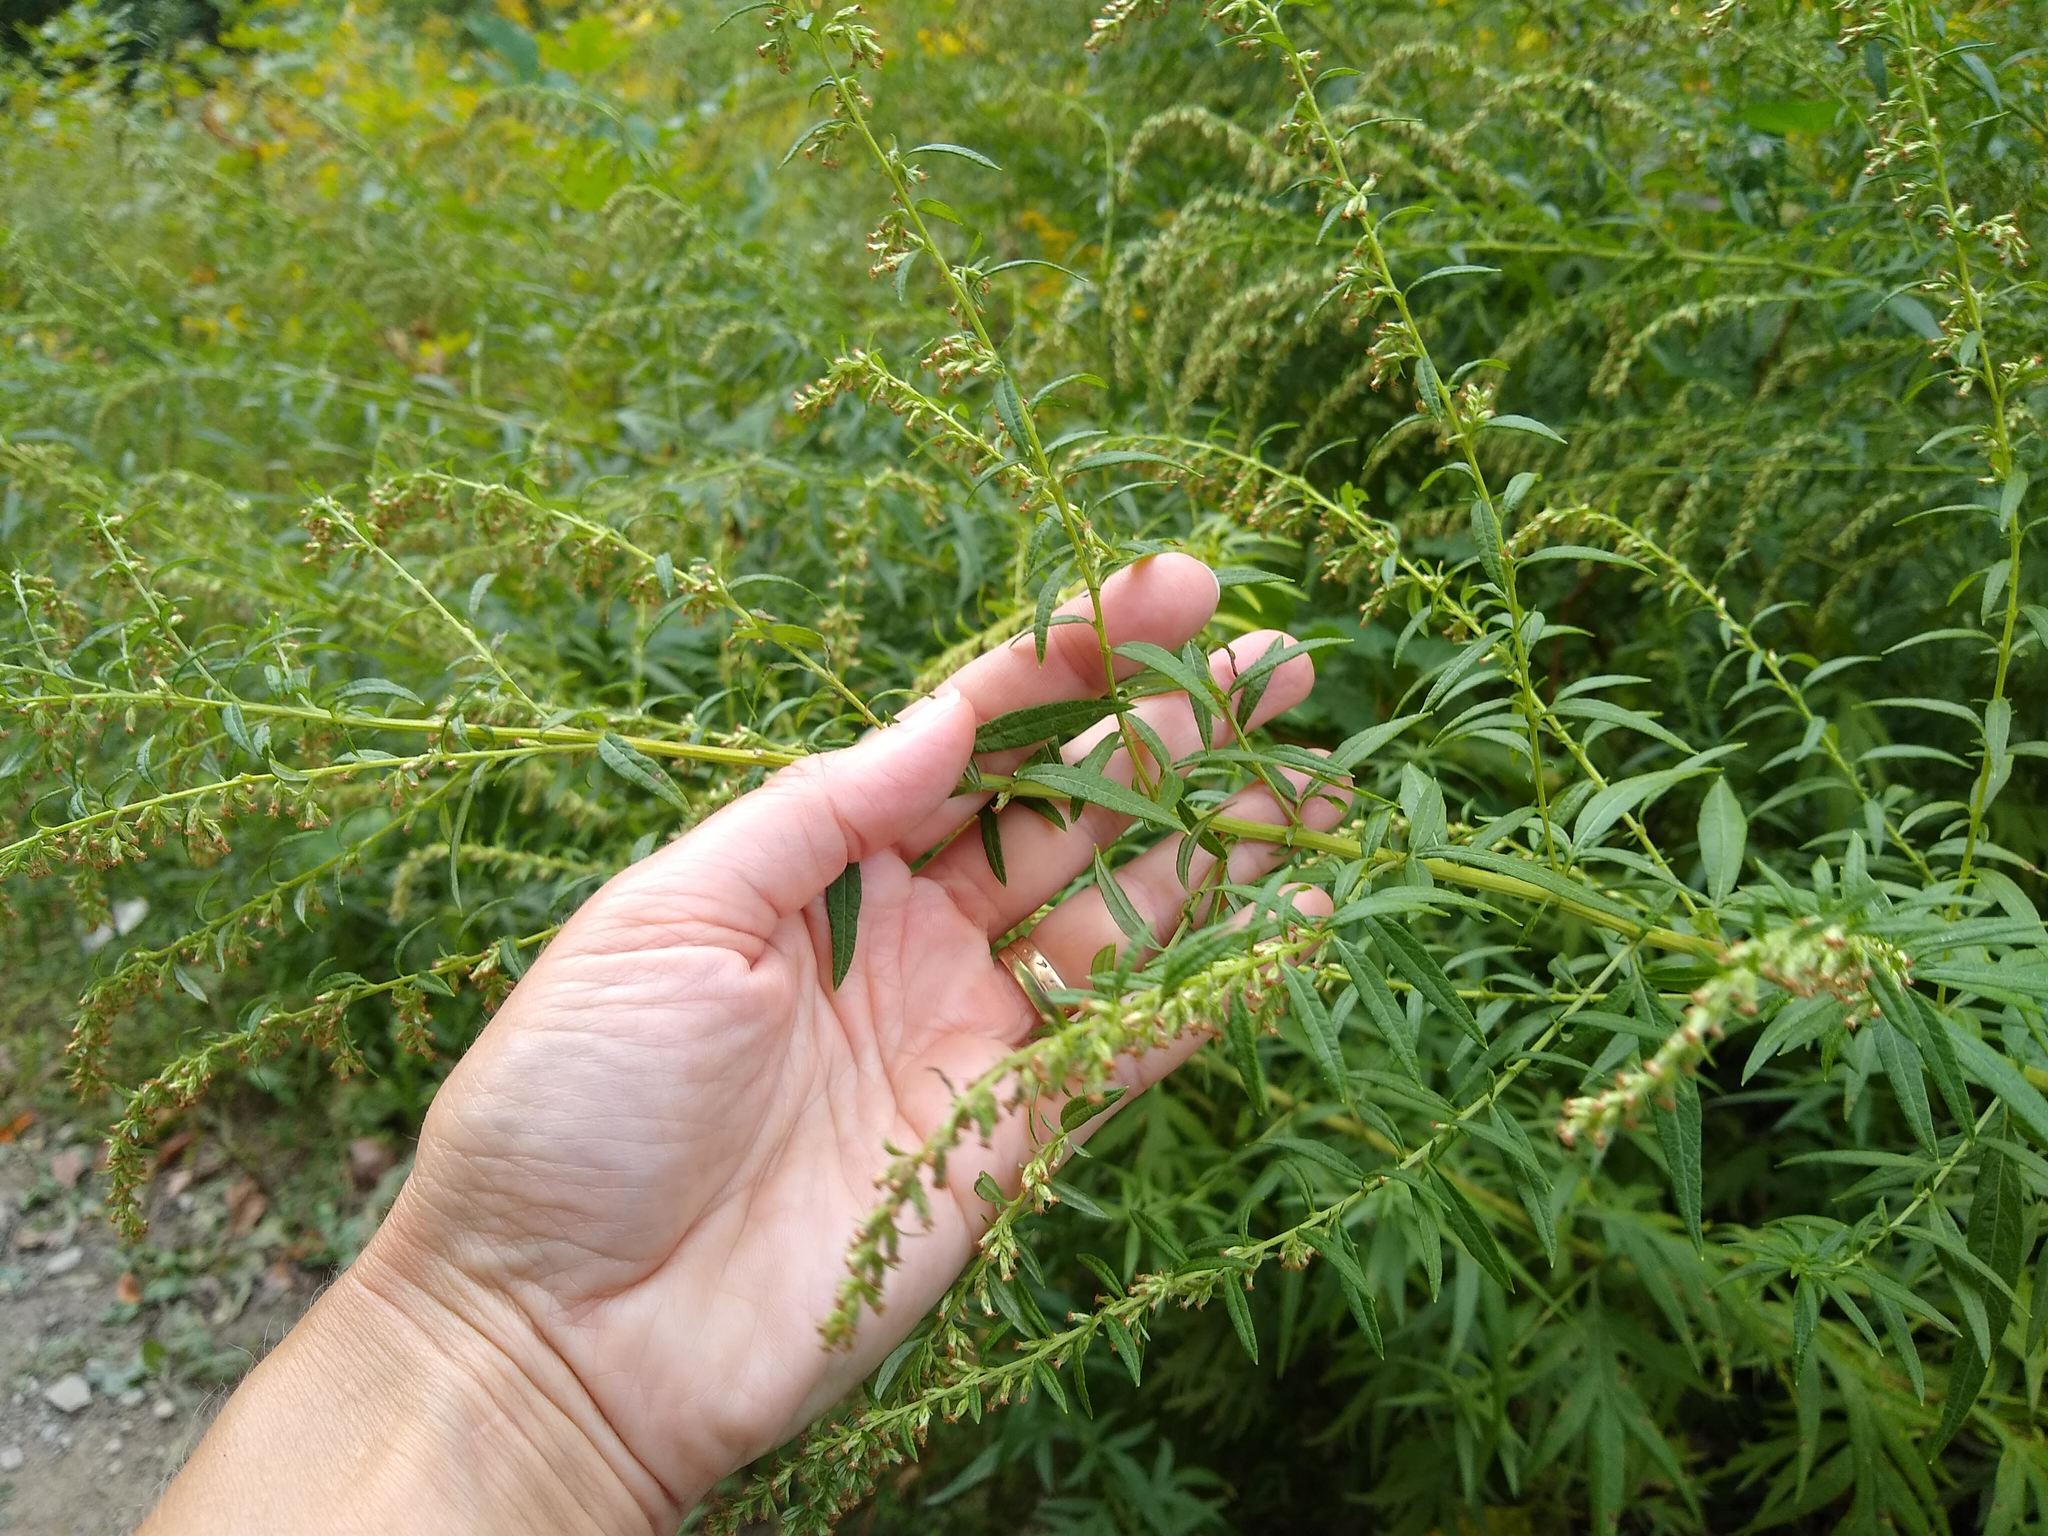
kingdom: Plantae
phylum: Tracheophyta
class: Magnoliopsida
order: Asterales
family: Asteraceae
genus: Artemisia
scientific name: Artemisia vulgaris
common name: Mugwort
